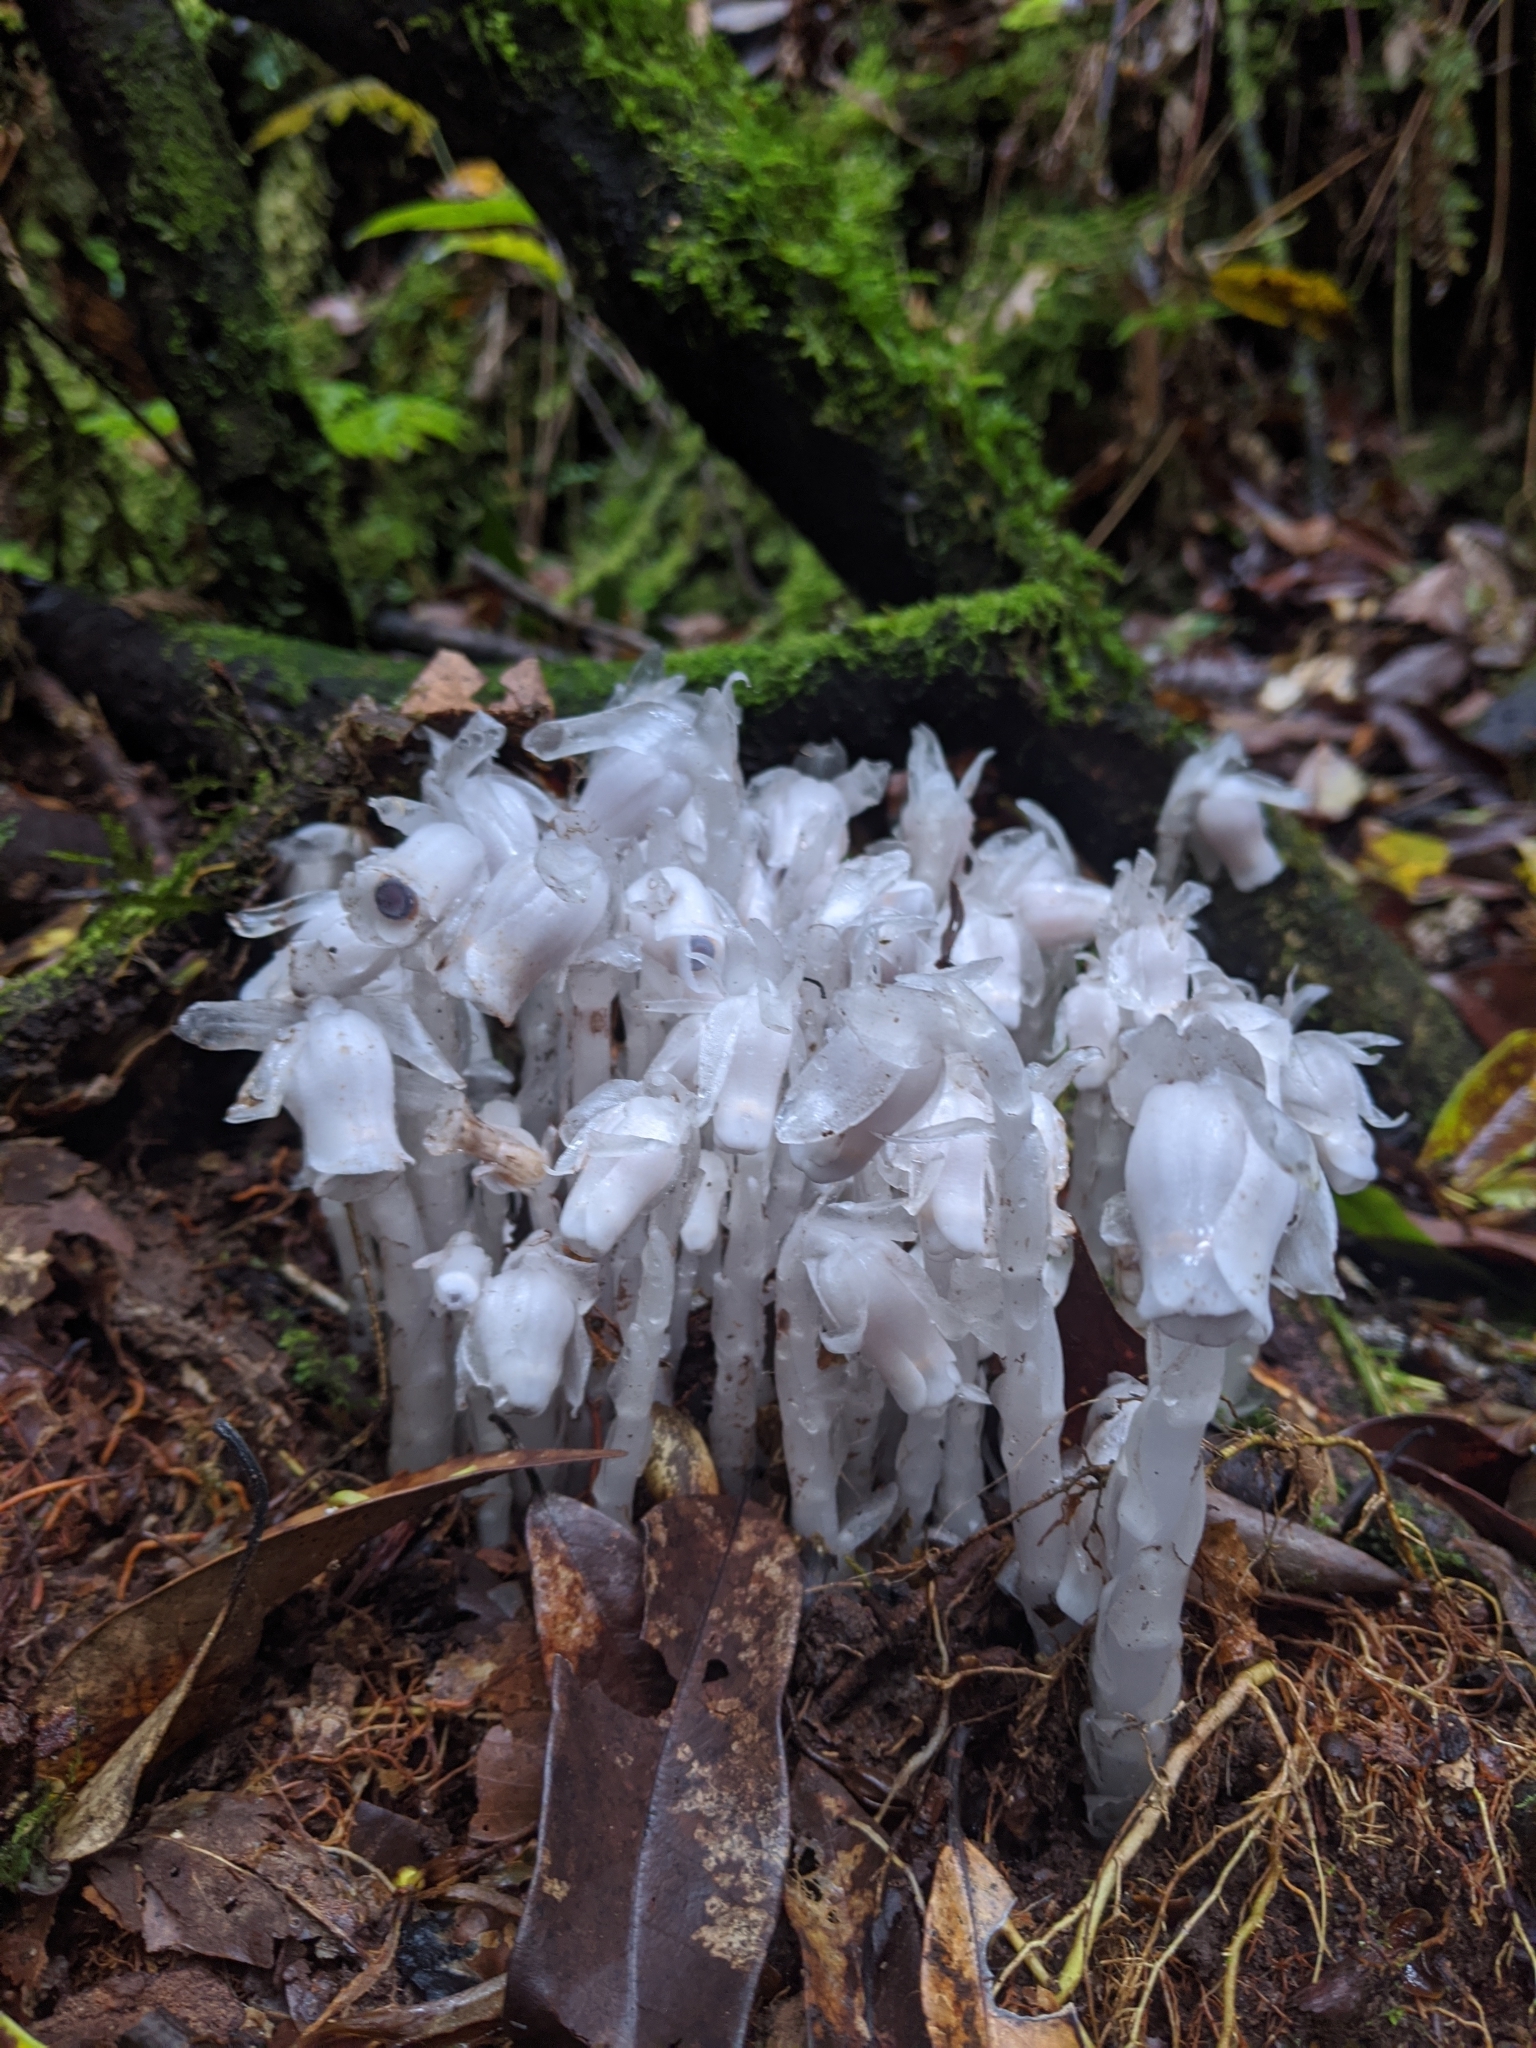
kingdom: Plantae
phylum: Tracheophyta
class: Magnoliopsida
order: Ericales
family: Ericaceae
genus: Monotropastrum
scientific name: Monotropastrum humile
